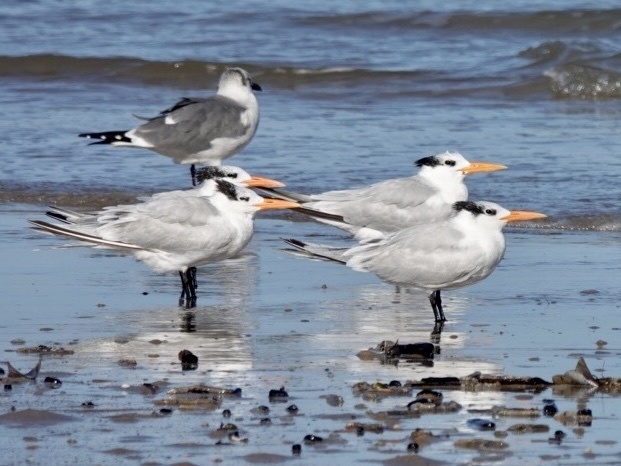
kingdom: Animalia
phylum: Chordata
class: Aves
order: Charadriiformes
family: Laridae
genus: Thalasseus
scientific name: Thalasseus maximus
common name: Royal tern
